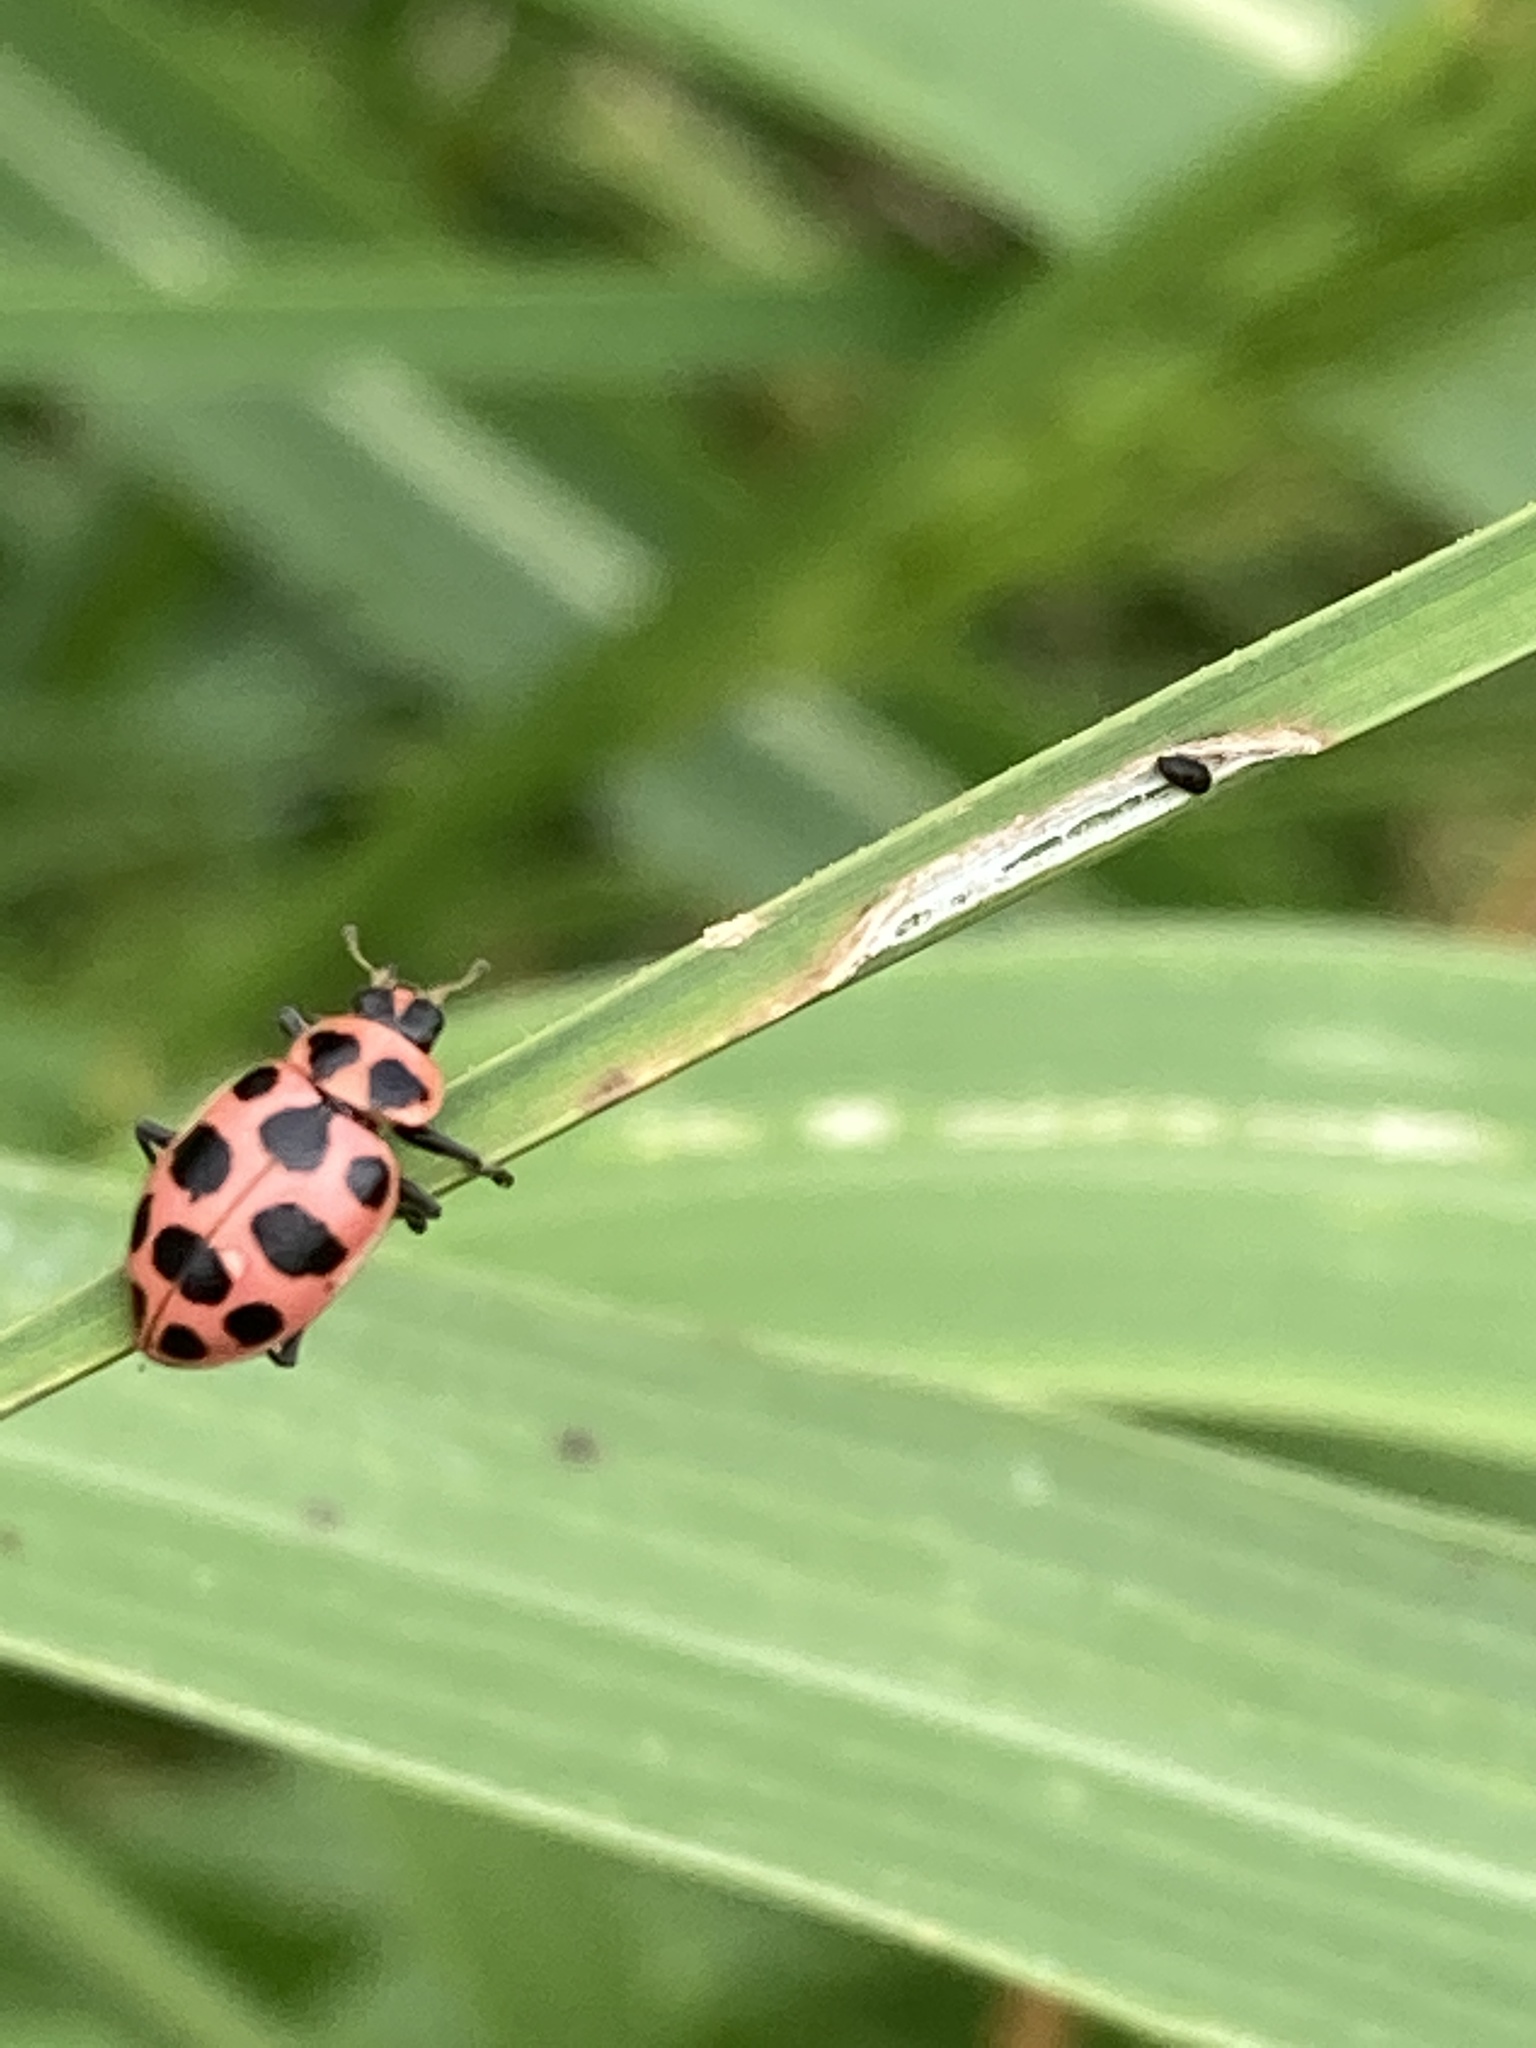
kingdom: Animalia
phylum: Arthropoda
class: Insecta
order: Coleoptera
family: Coccinellidae
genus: Coleomegilla
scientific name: Coleomegilla maculata
